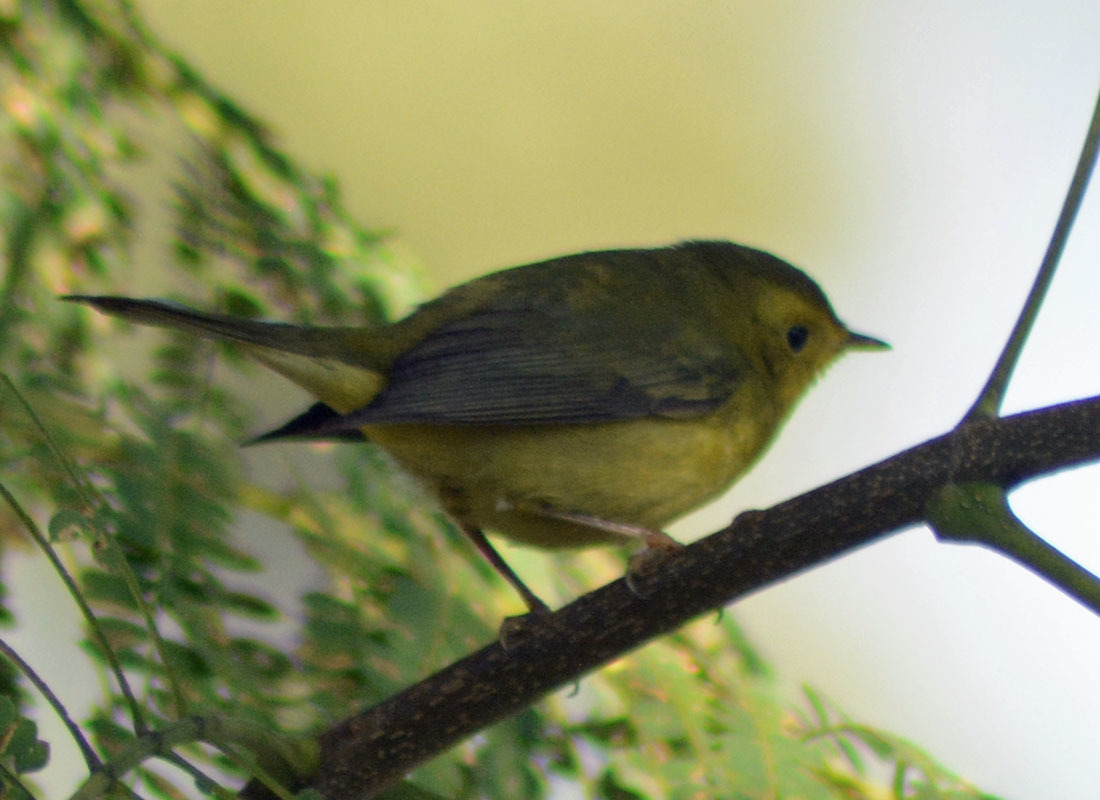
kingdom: Animalia
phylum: Chordata
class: Aves
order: Passeriformes
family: Parulidae
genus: Cardellina
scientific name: Cardellina pusilla
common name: Wilson's warbler
